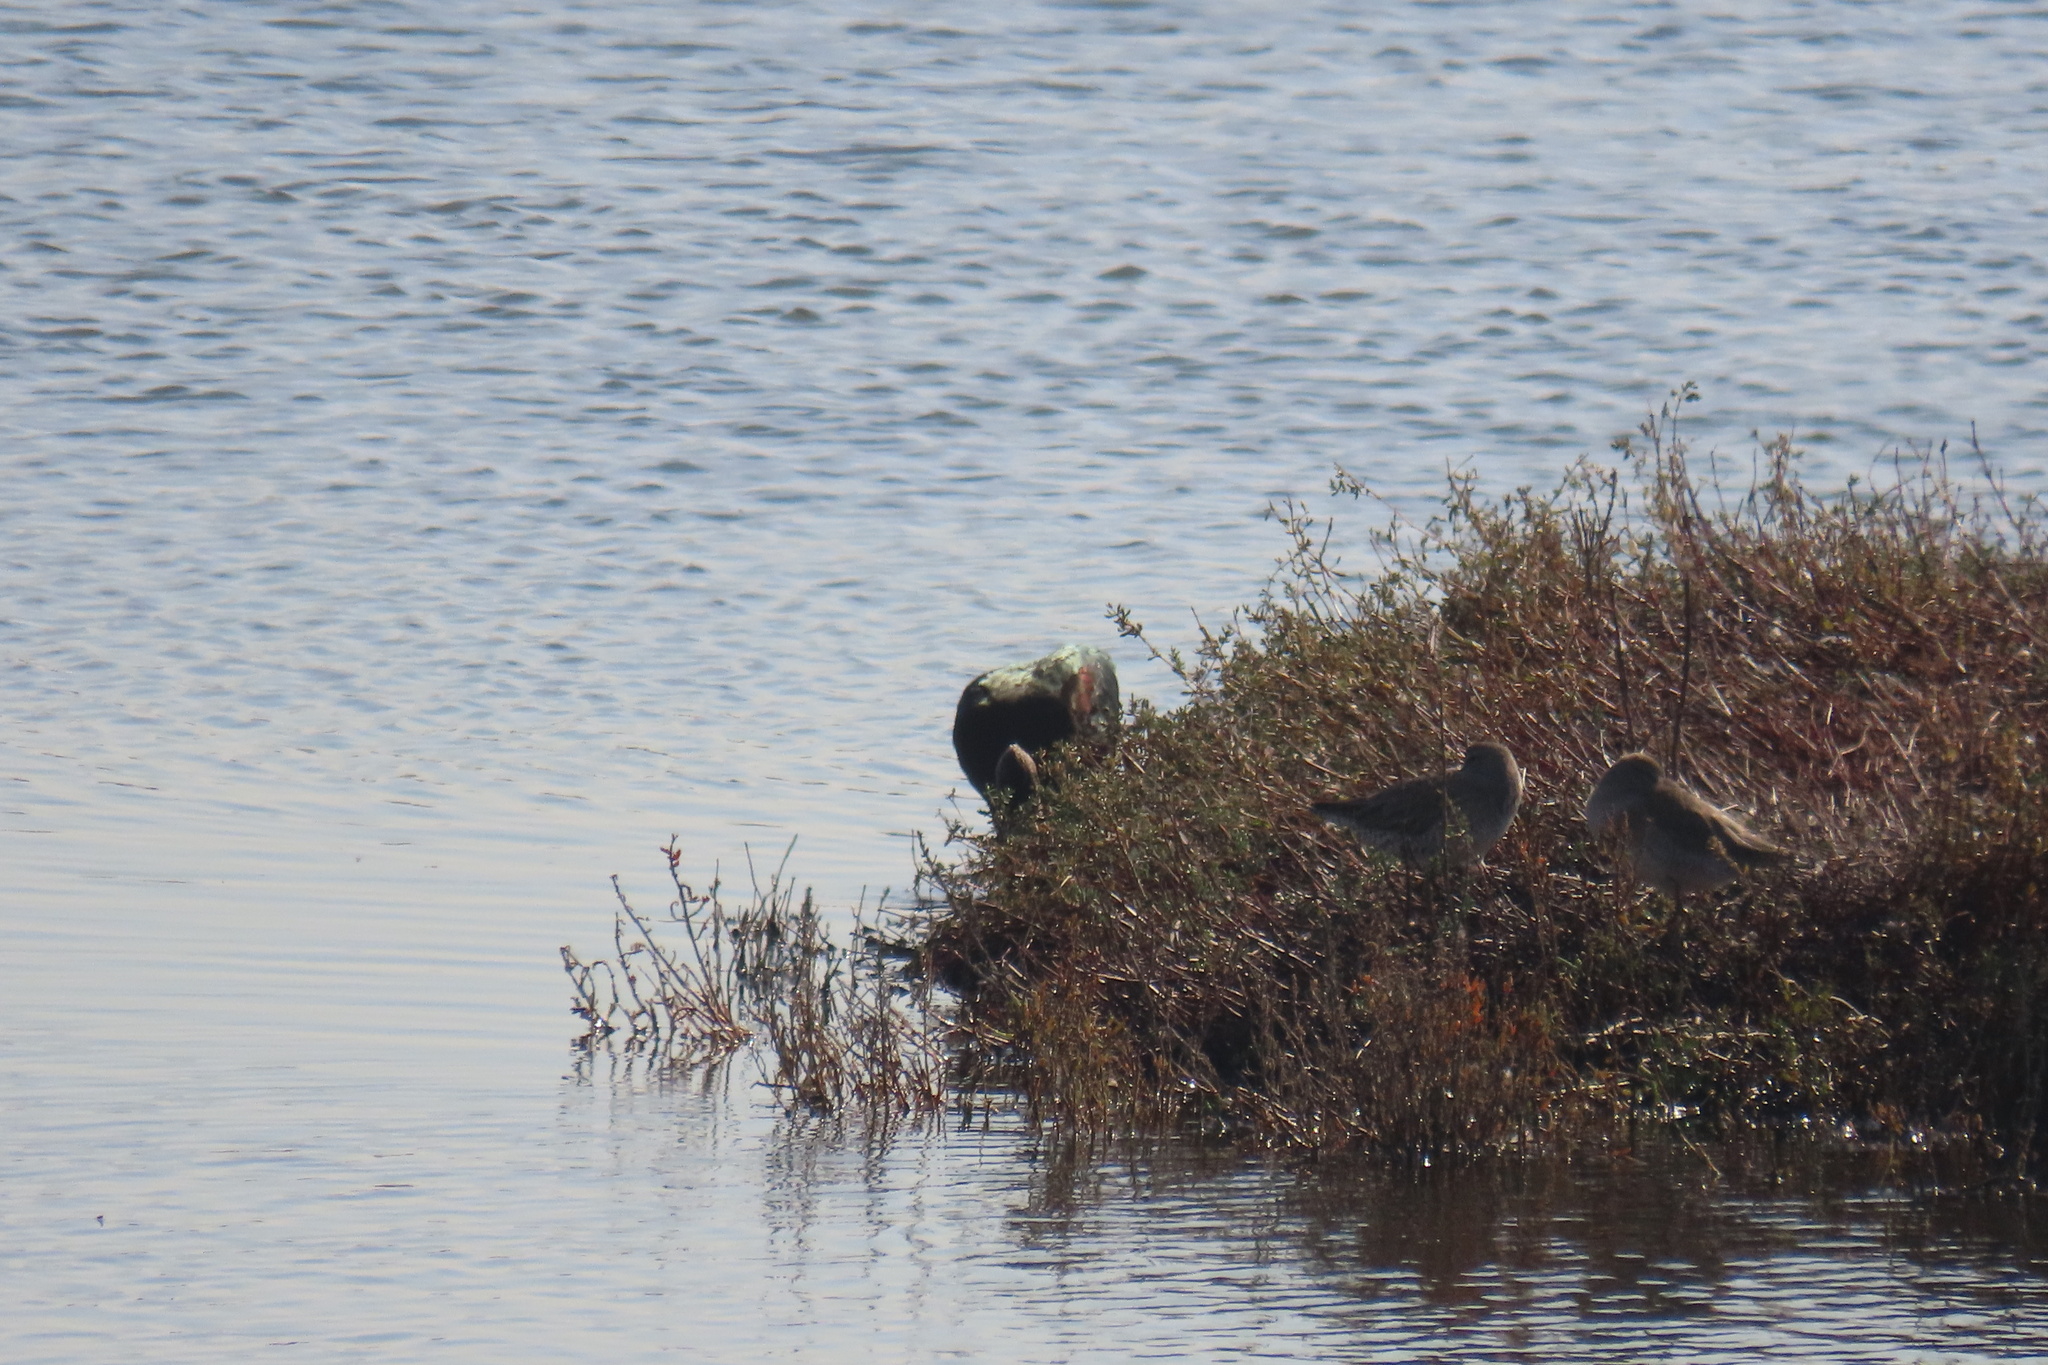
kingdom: Animalia
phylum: Chordata
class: Aves
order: Pelecaniformes
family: Threskiornithidae
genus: Plegadis
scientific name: Plegadis chihi
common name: White-faced ibis
